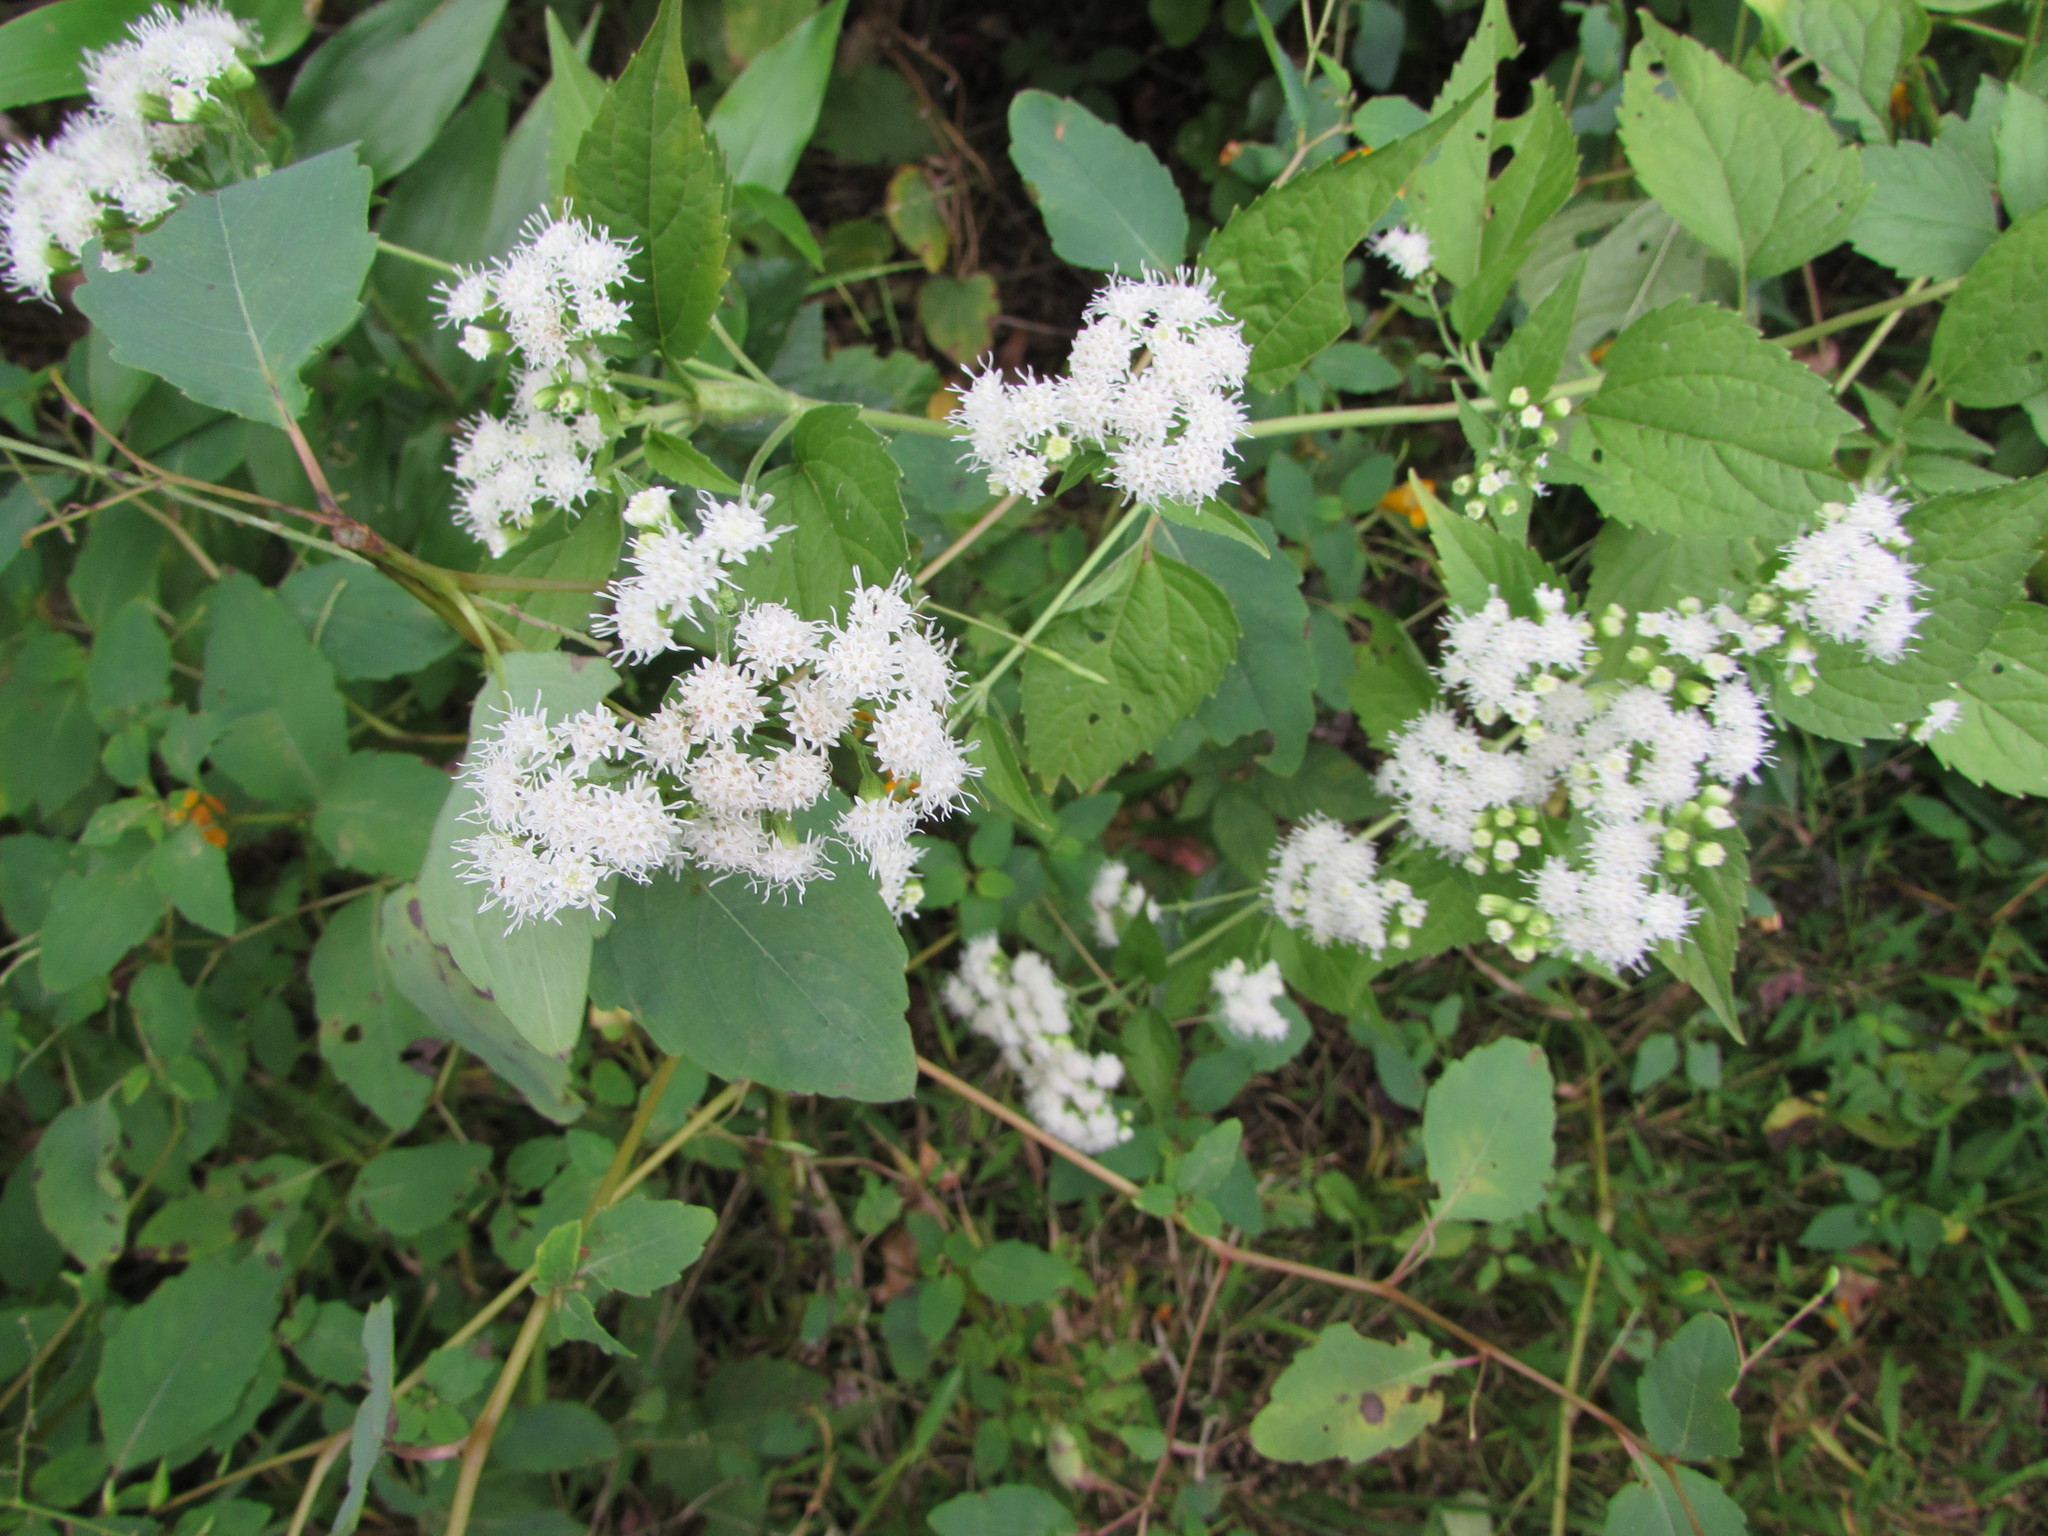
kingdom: Plantae
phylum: Tracheophyta
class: Magnoliopsida
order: Asterales
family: Asteraceae
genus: Ageratina
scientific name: Ageratina altissima
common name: White snakeroot
